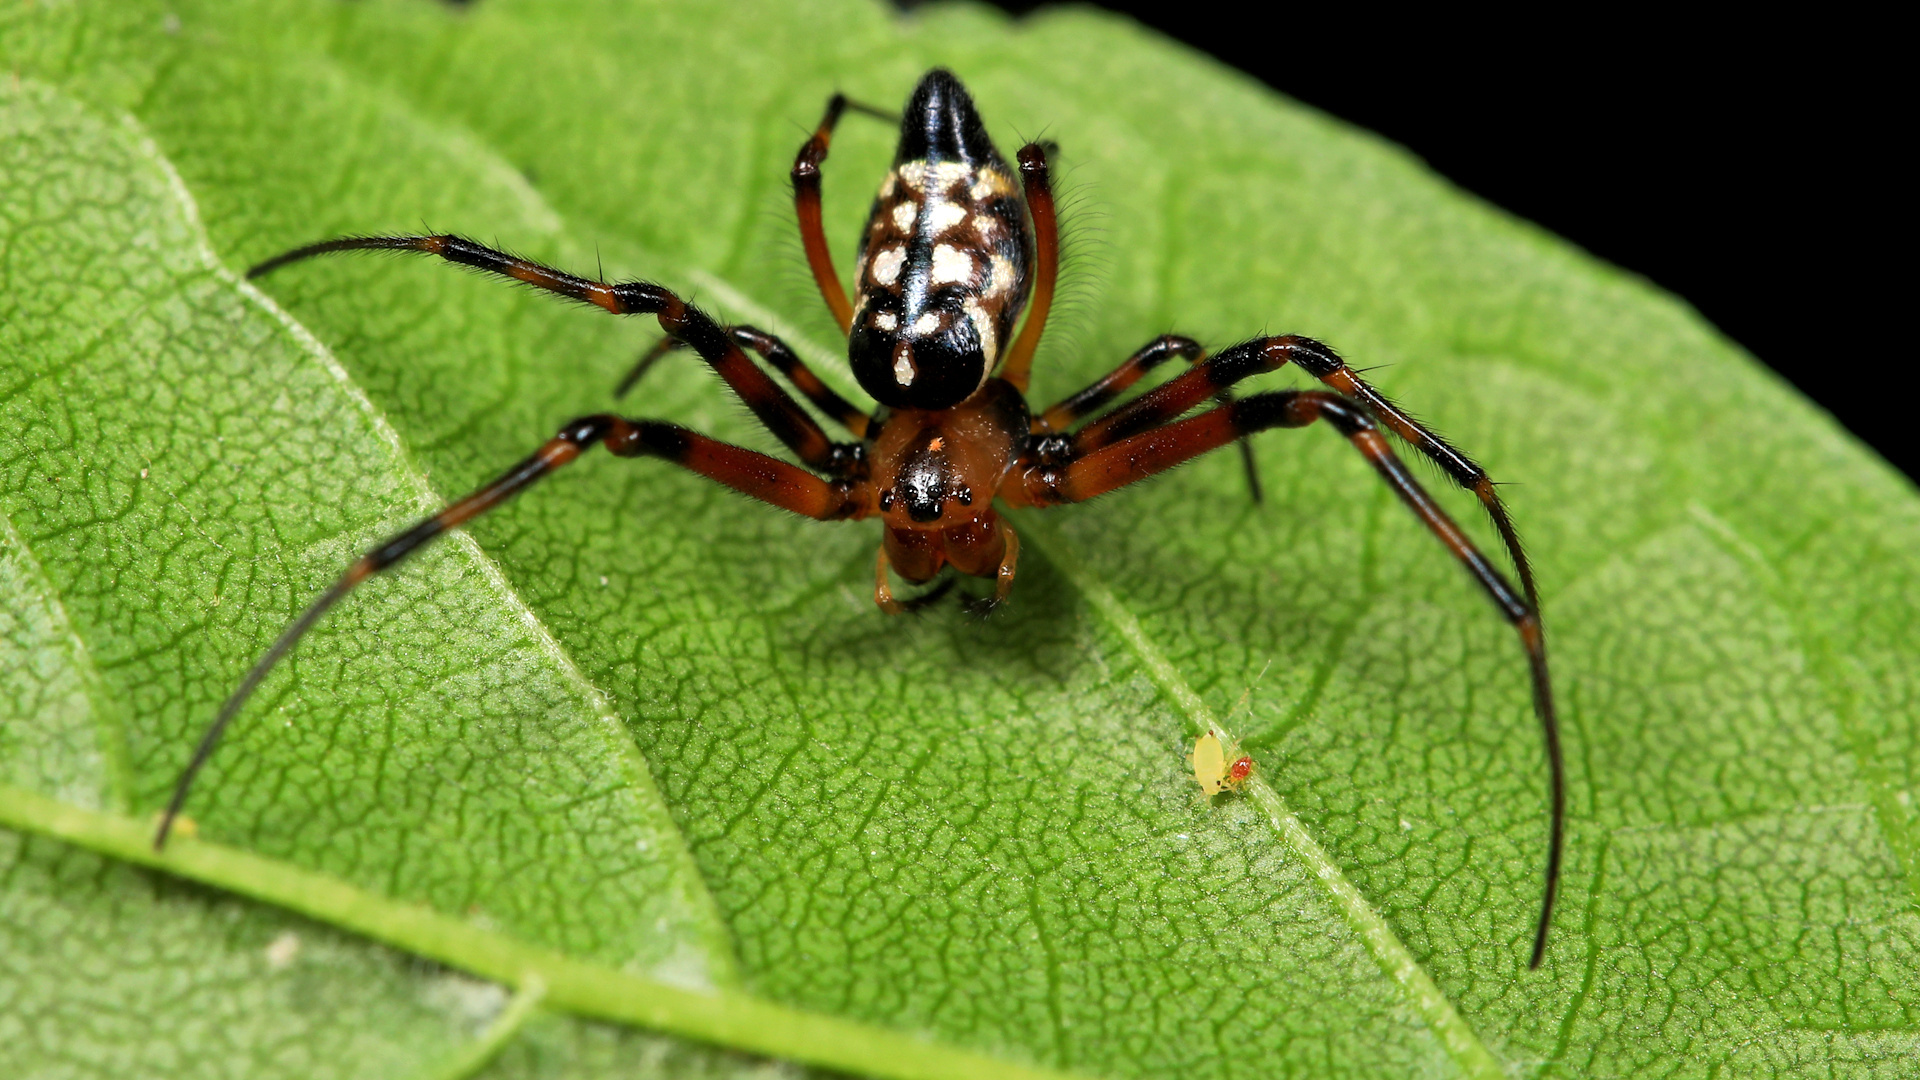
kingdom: Animalia
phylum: Arthropoda
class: Arachnida
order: Araneae
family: Tetragnathidae
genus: Leucauge
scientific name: Leucauge medjensis
